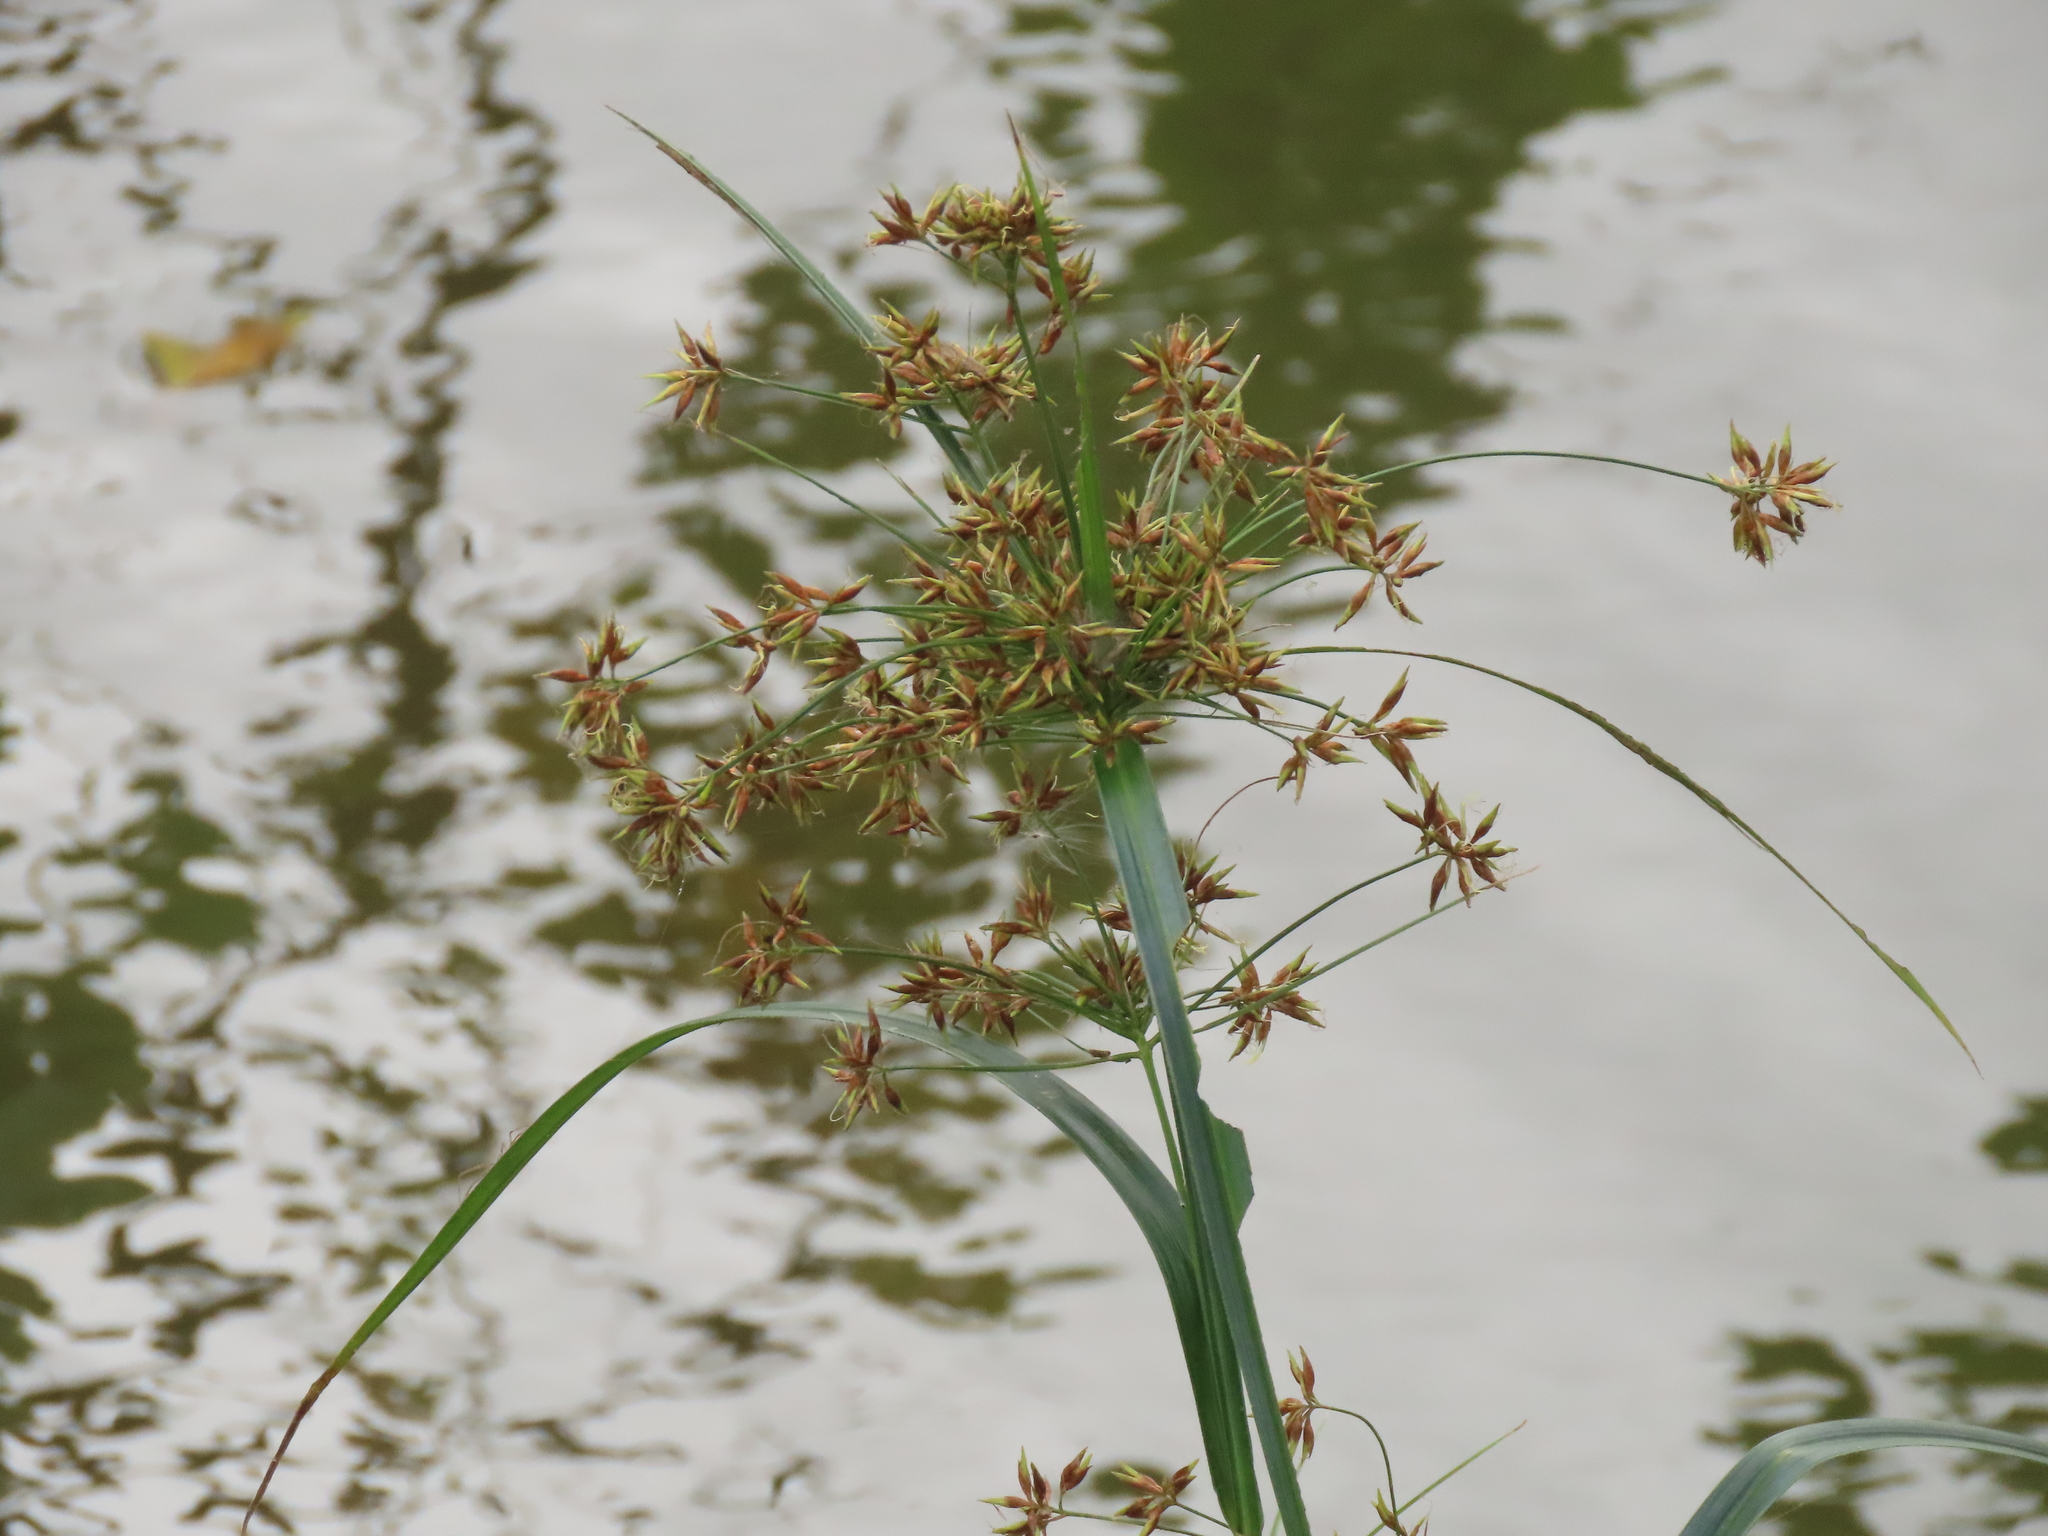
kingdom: Plantae
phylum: Tracheophyta
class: Liliopsida
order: Poales
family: Cyperaceae
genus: Rhynchospora
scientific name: Rhynchospora corymbosa
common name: Golden beak sedge
